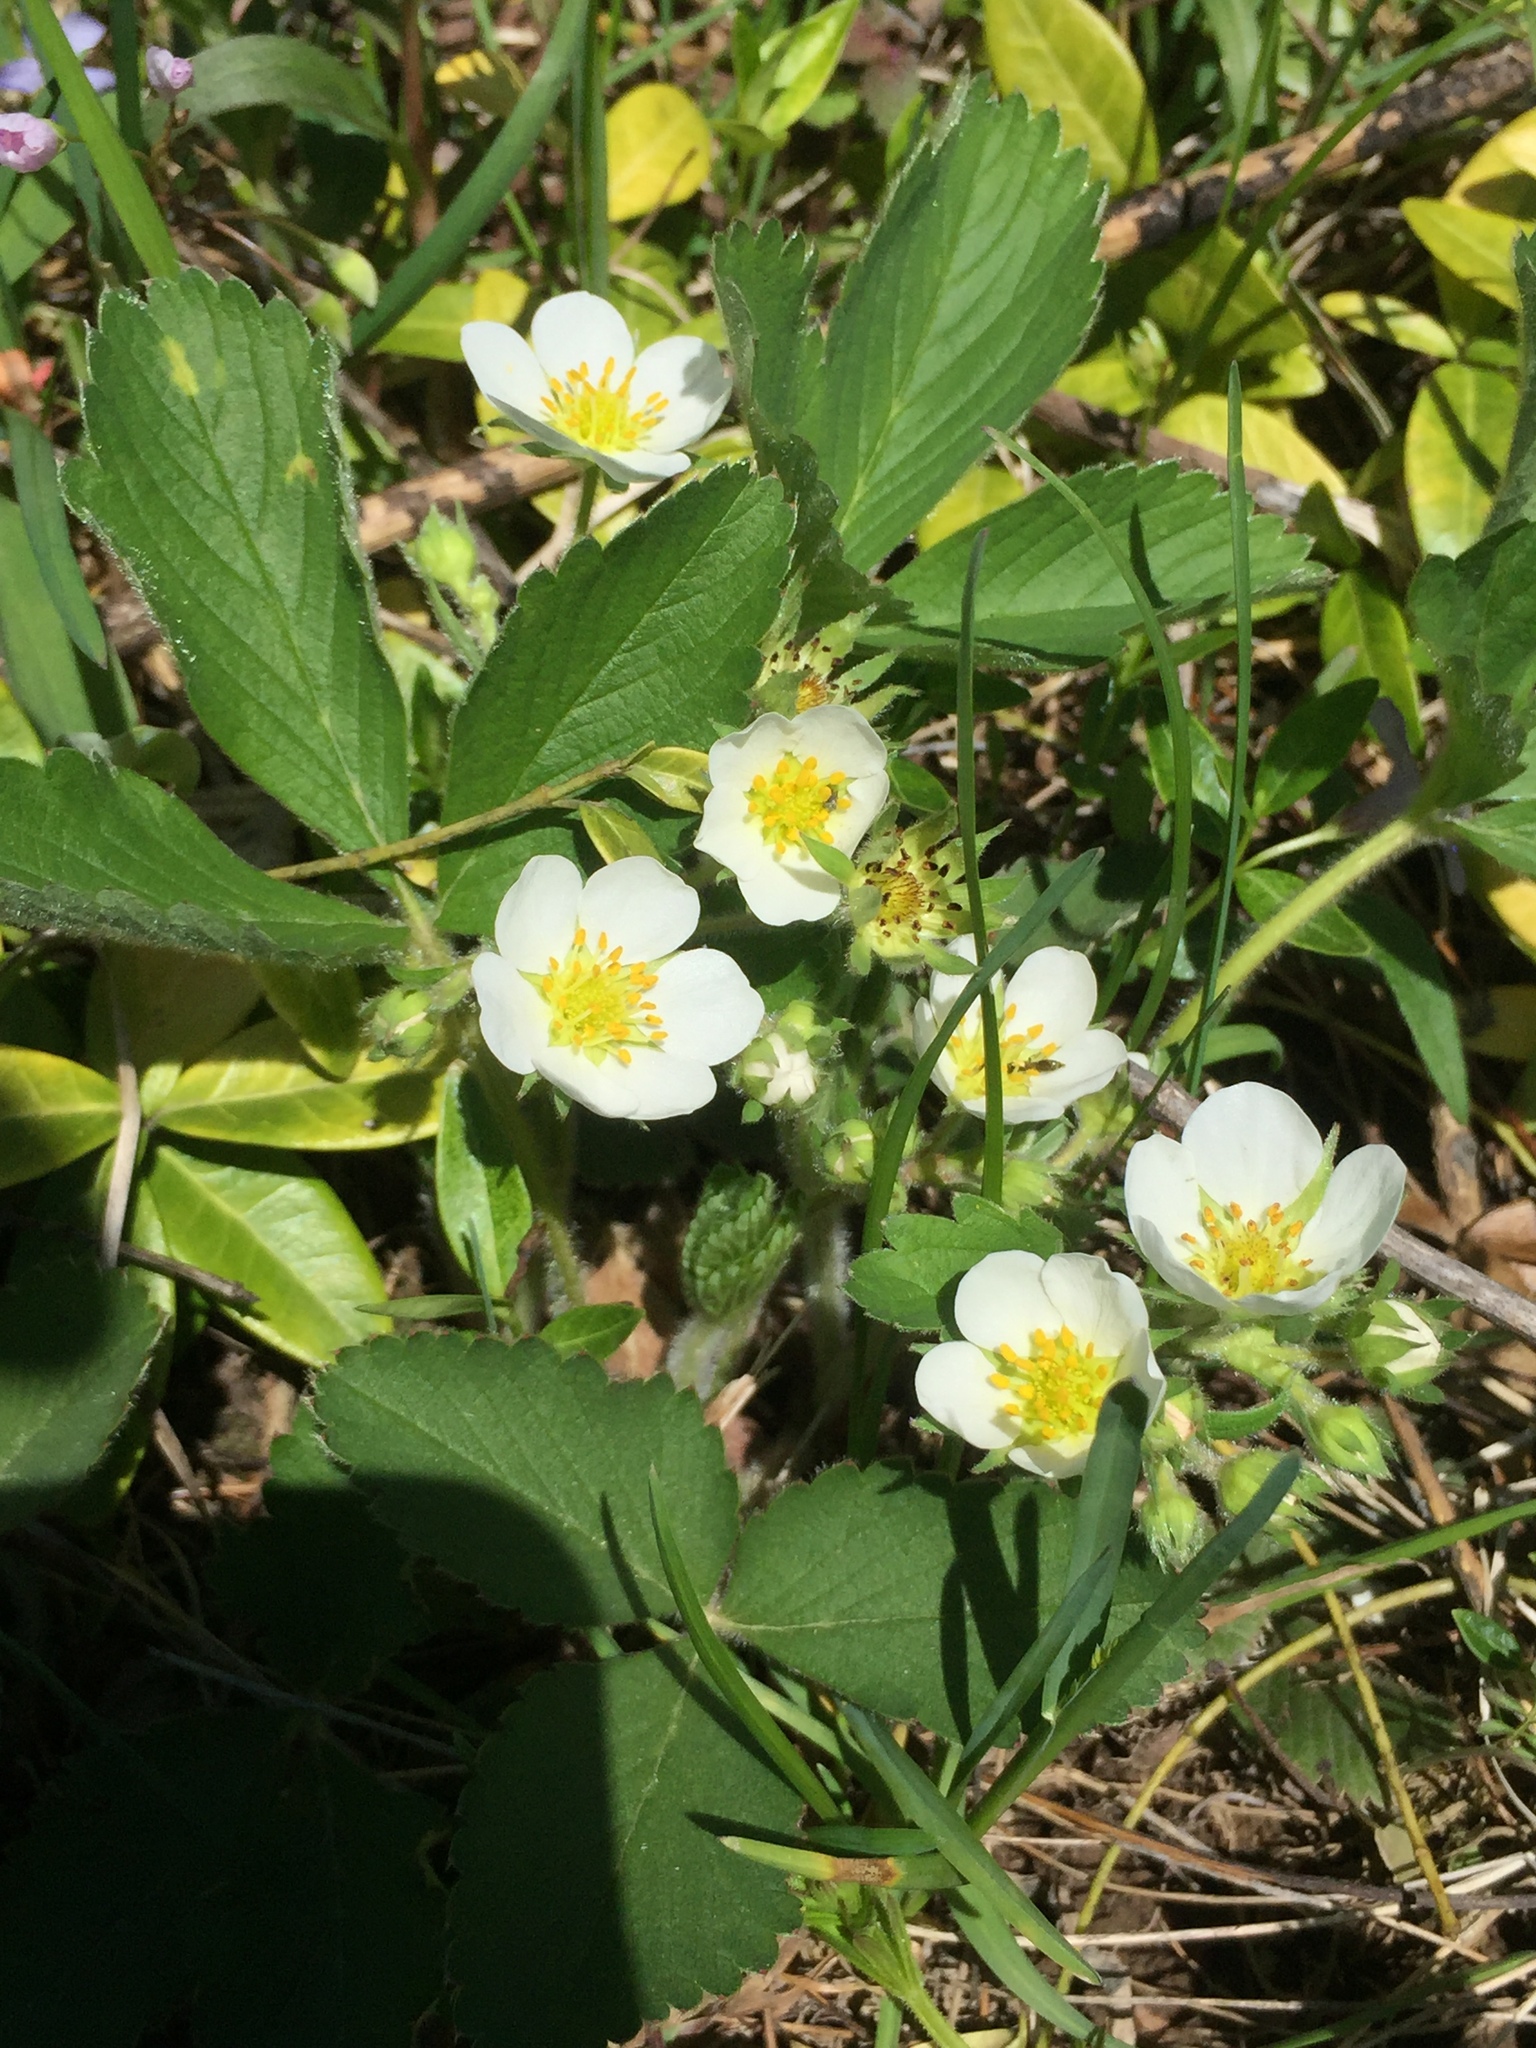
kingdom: Plantae
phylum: Tracheophyta
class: Magnoliopsida
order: Rosales
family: Rosaceae
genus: Fragaria
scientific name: Fragaria virginiana
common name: Thickleaved wild strawberry
